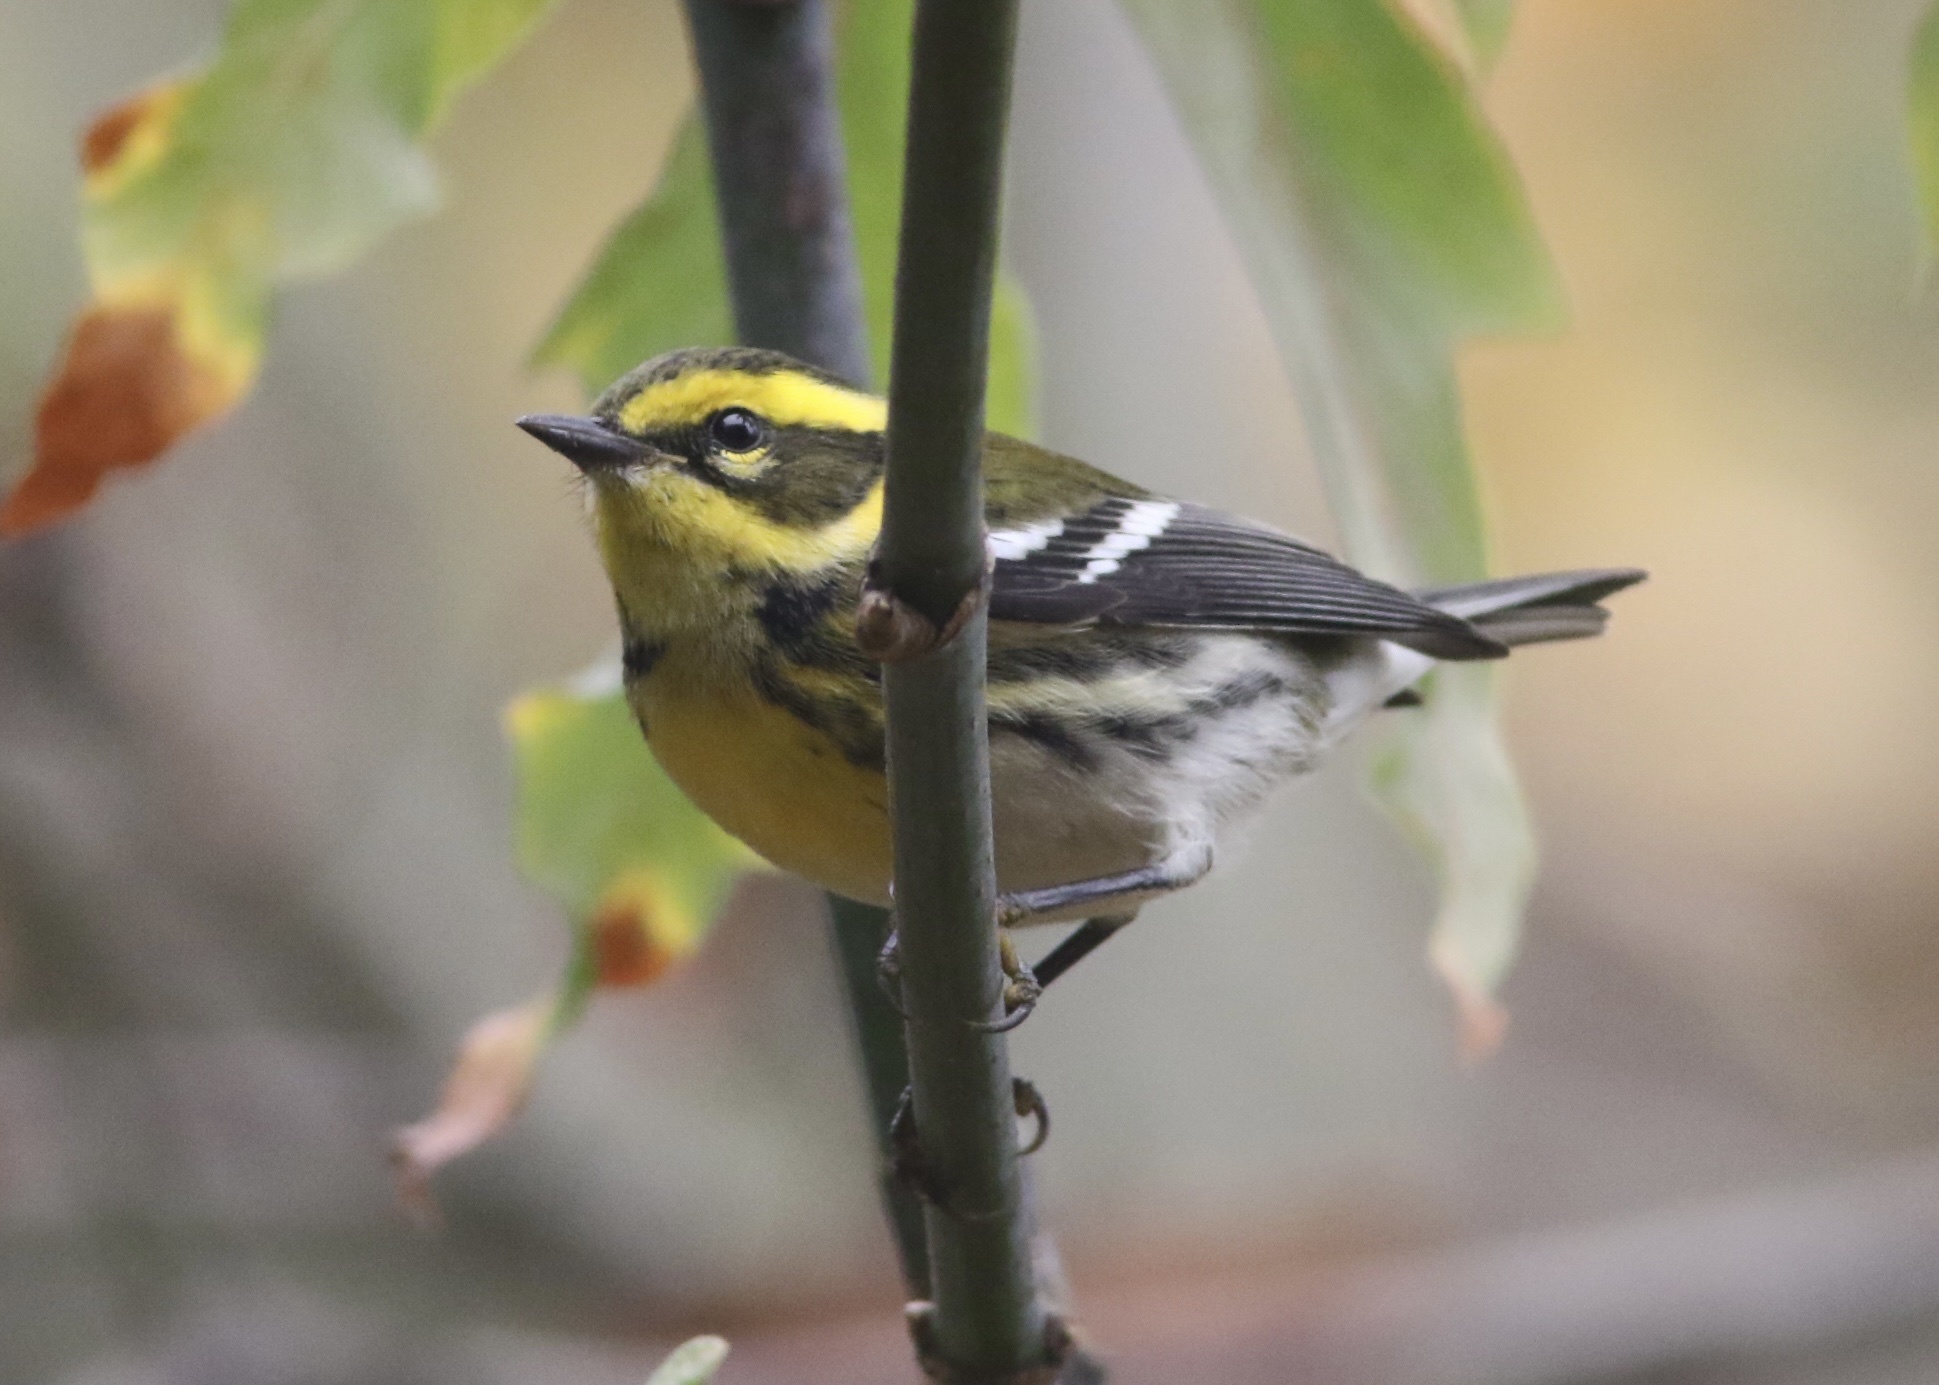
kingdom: Animalia
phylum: Chordata
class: Aves
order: Passeriformes
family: Parulidae
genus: Setophaga
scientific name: Setophaga townsendi
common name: Townsend's warbler
